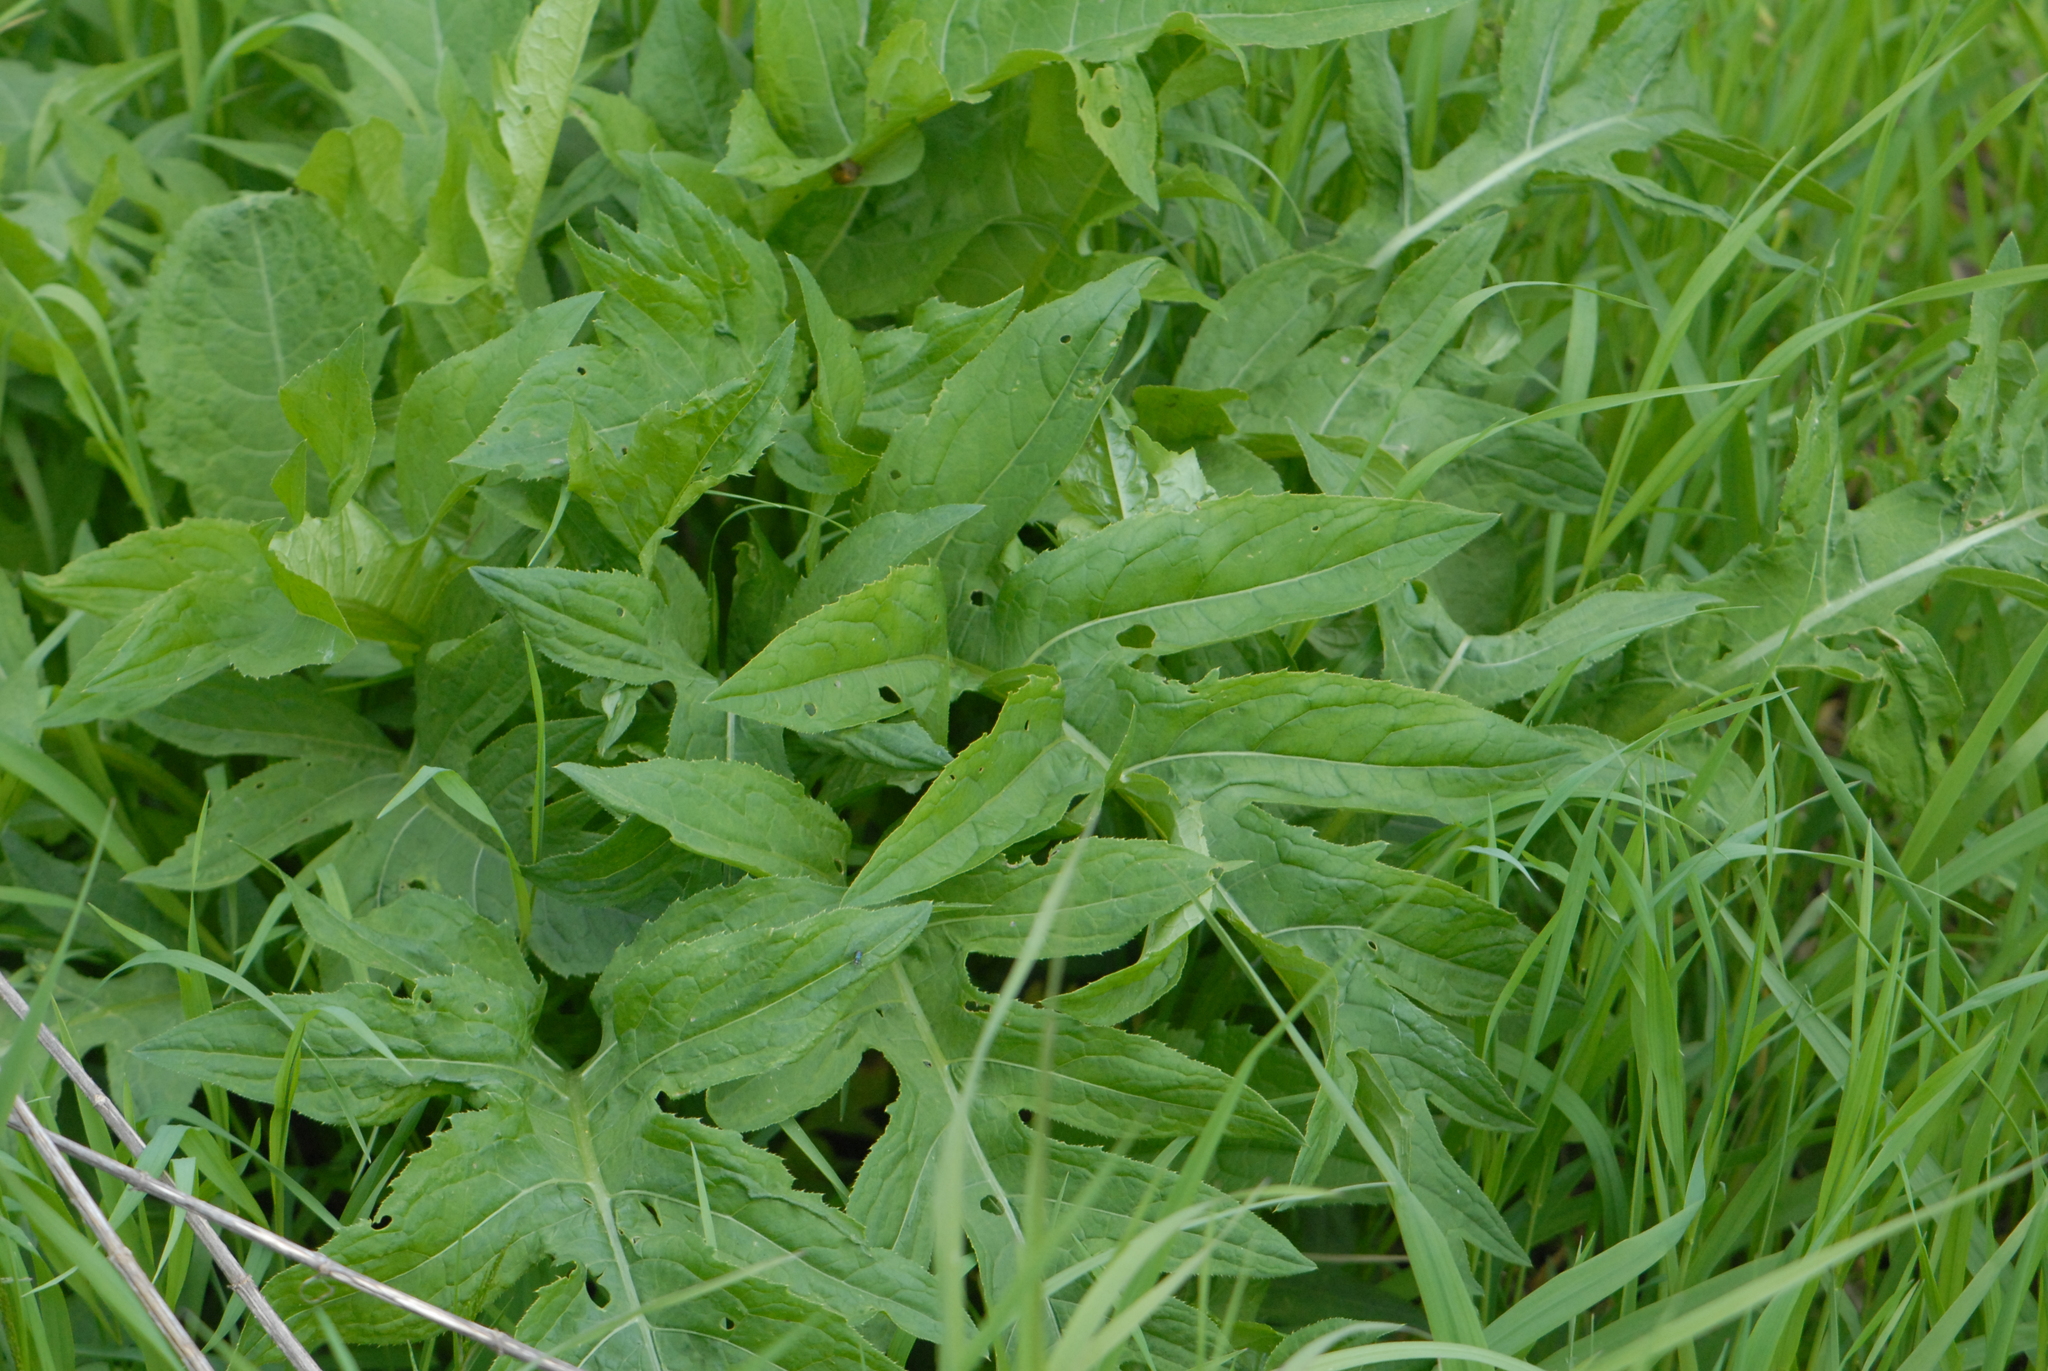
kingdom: Plantae
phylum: Tracheophyta
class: Magnoliopsida
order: Asterales
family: Asteraceae
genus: Cirsium
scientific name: Cirsium oleraceum
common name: Cabbage thistle
